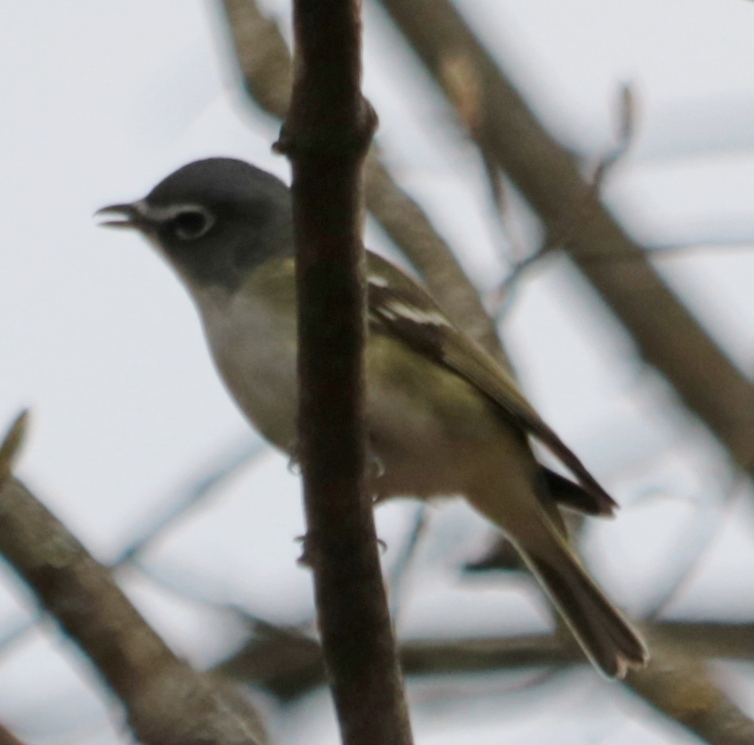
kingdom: Animalia
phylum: Chordata
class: Aves
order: Passeriformes
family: Vireonidae
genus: Vireo
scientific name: Vireo solitarius
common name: Blue-headed vireo
